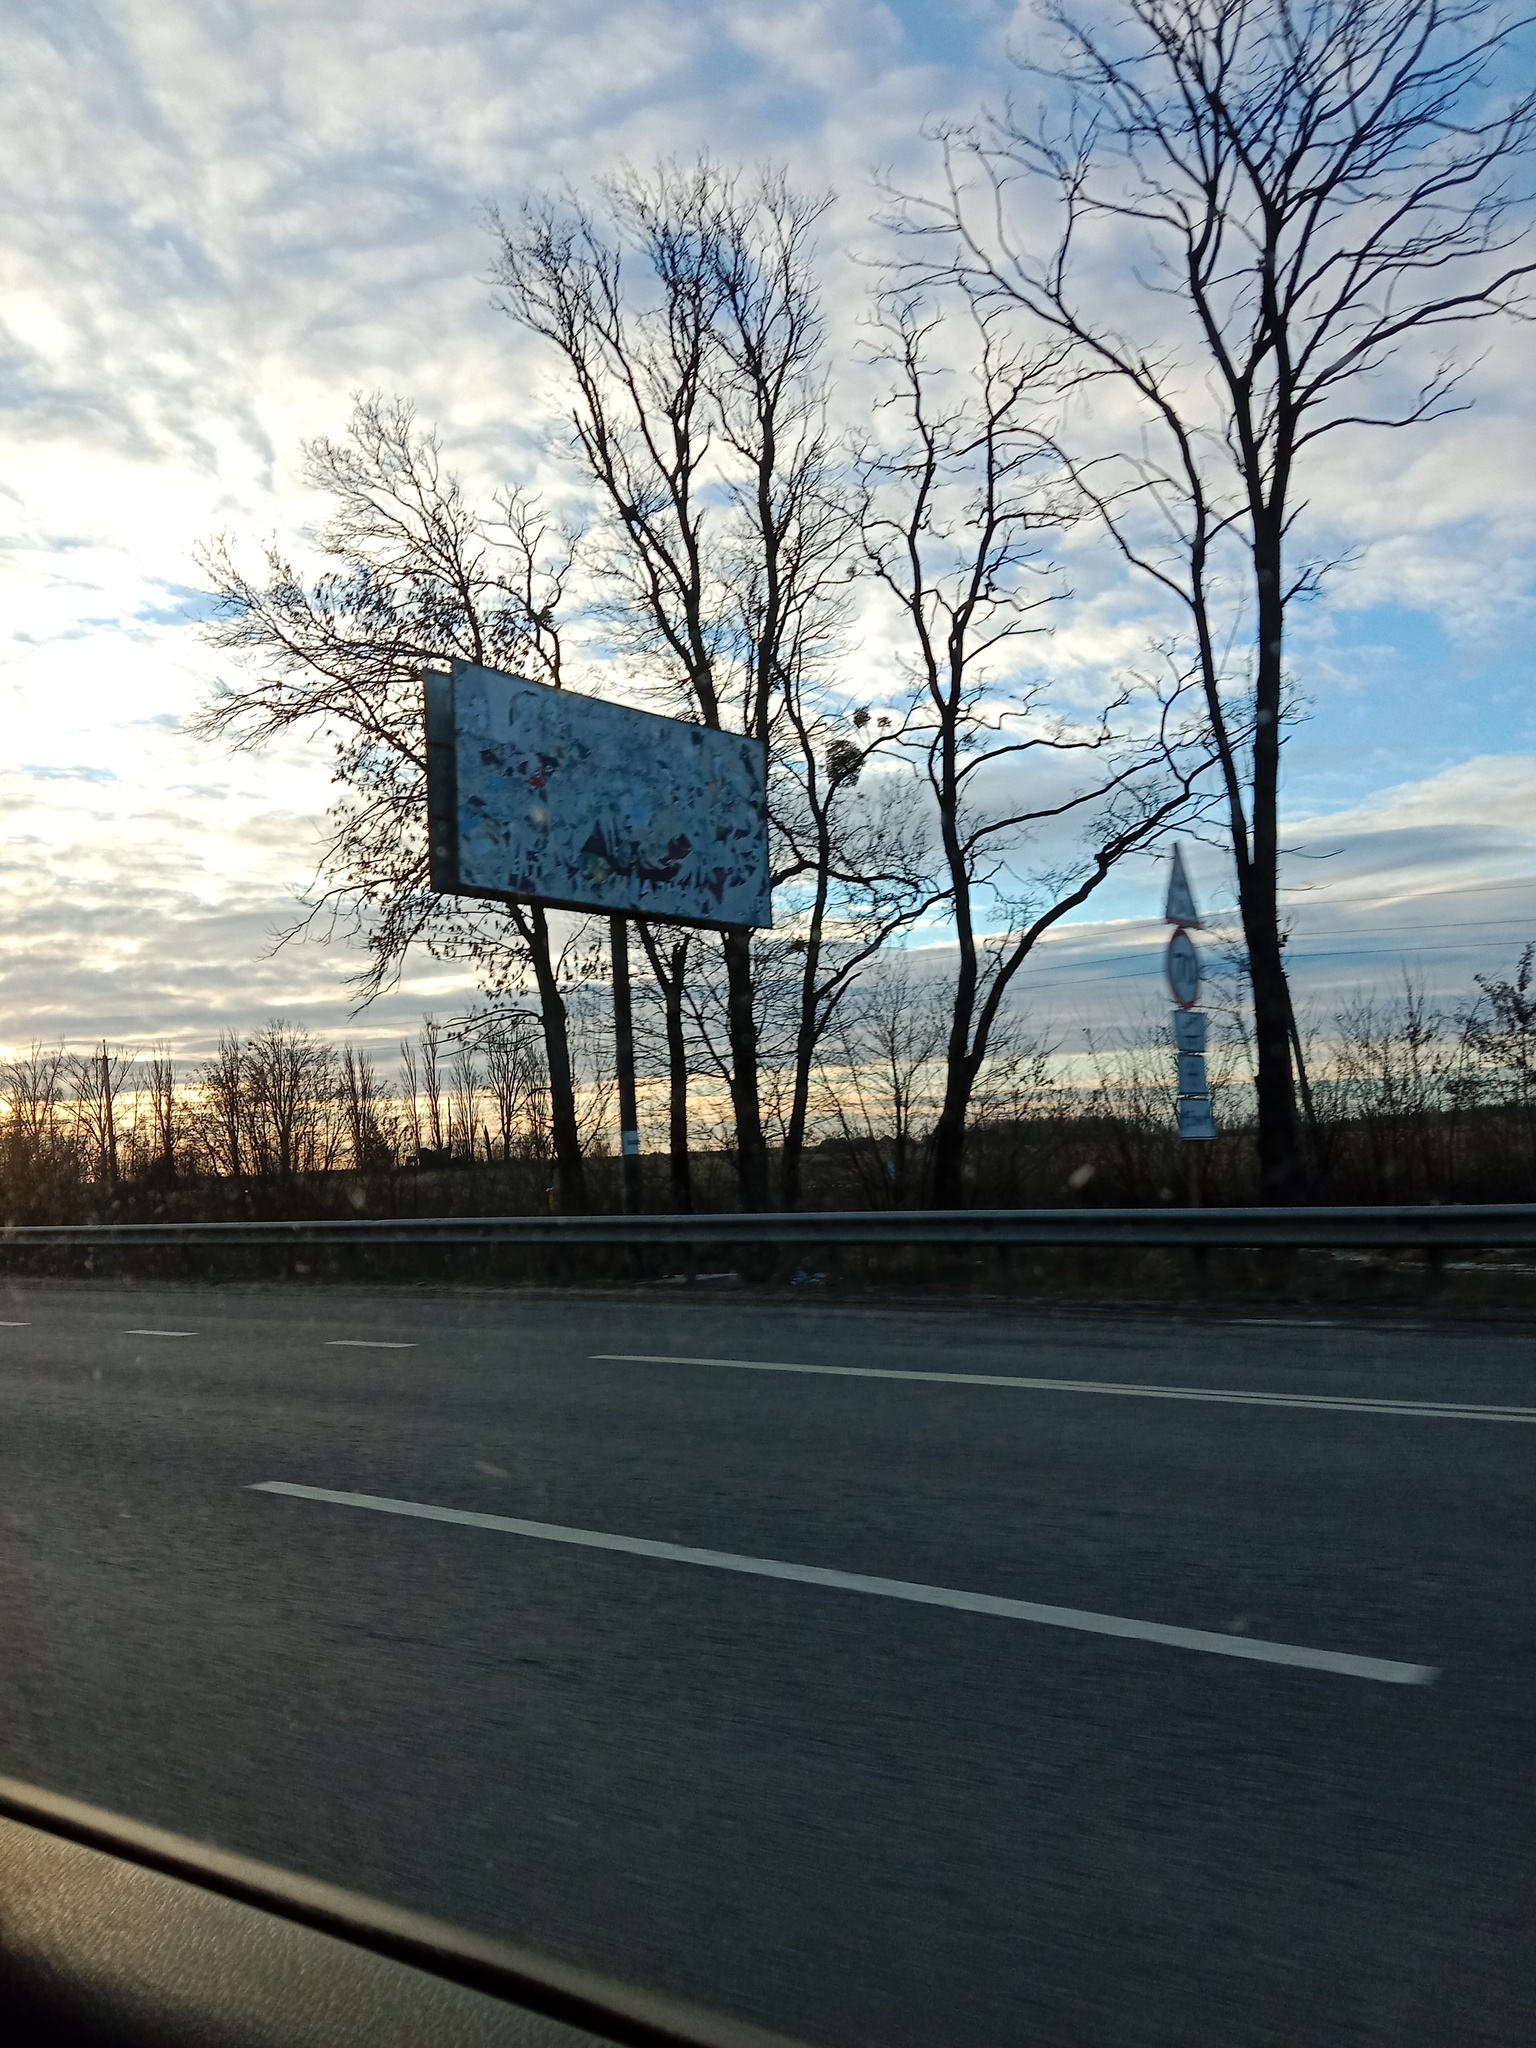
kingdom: Plantae
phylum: Tracheophyta
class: Magnoliopsida
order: Santalales
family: Viscaceae
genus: Viscum
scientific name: Viscum album
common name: Mistletoe
